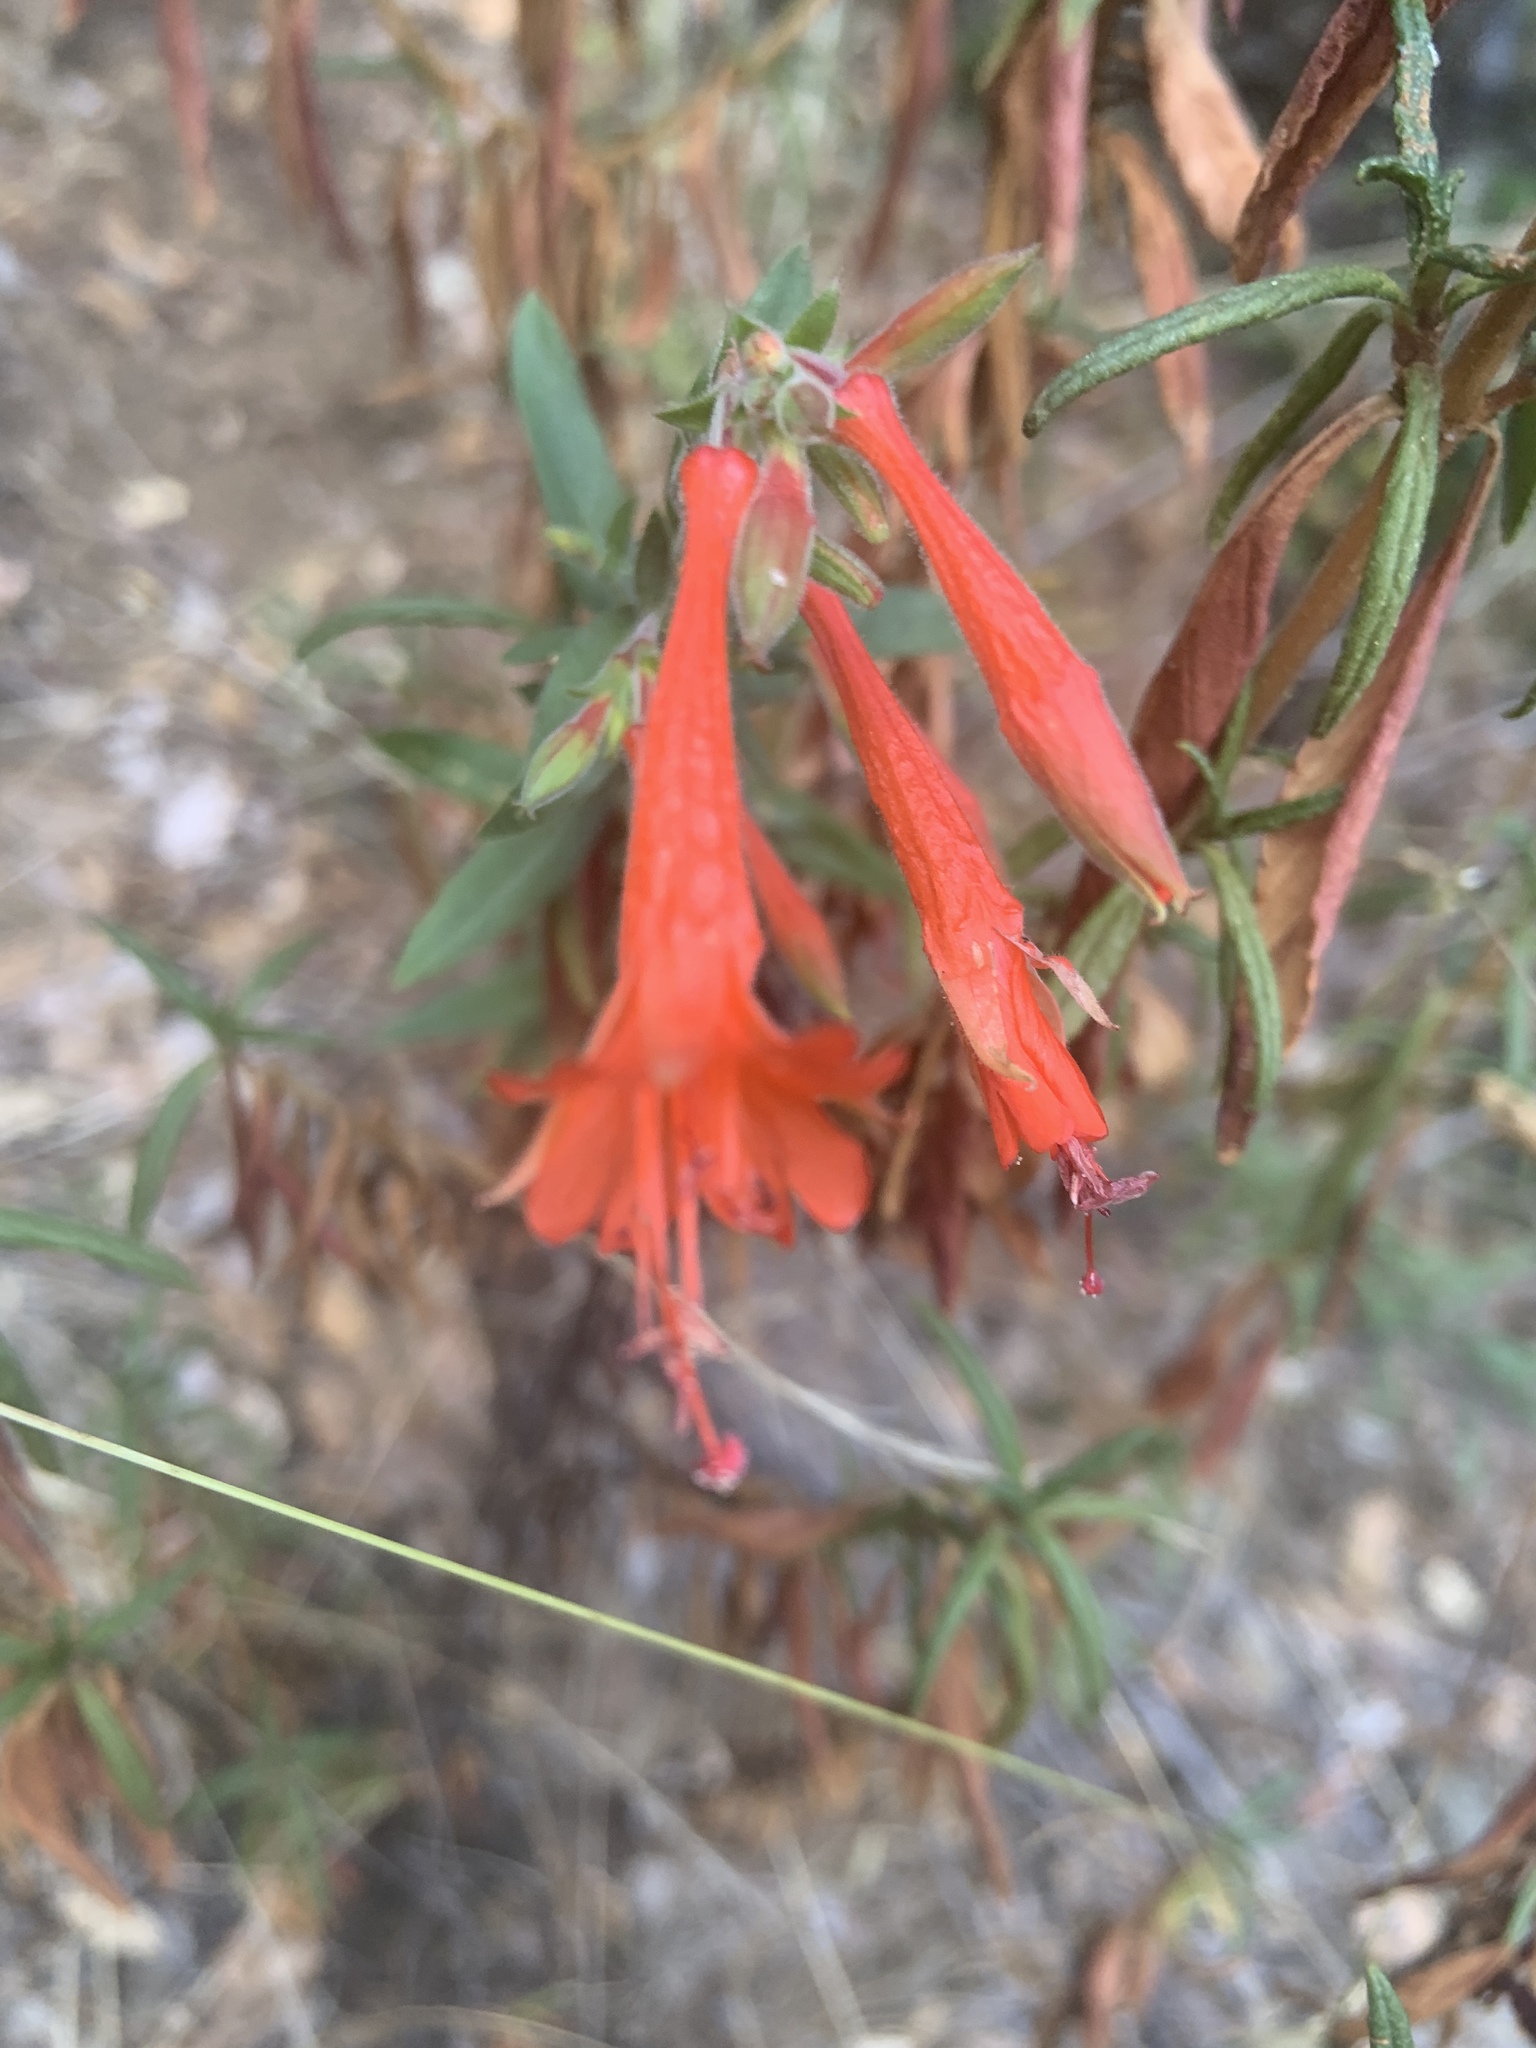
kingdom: Plantae
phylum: Tracheophyta
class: Magnoliopsida
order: Myrtales
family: Onagraceae
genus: Epilobium
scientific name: Epilobium canum
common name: California-fuchsia
